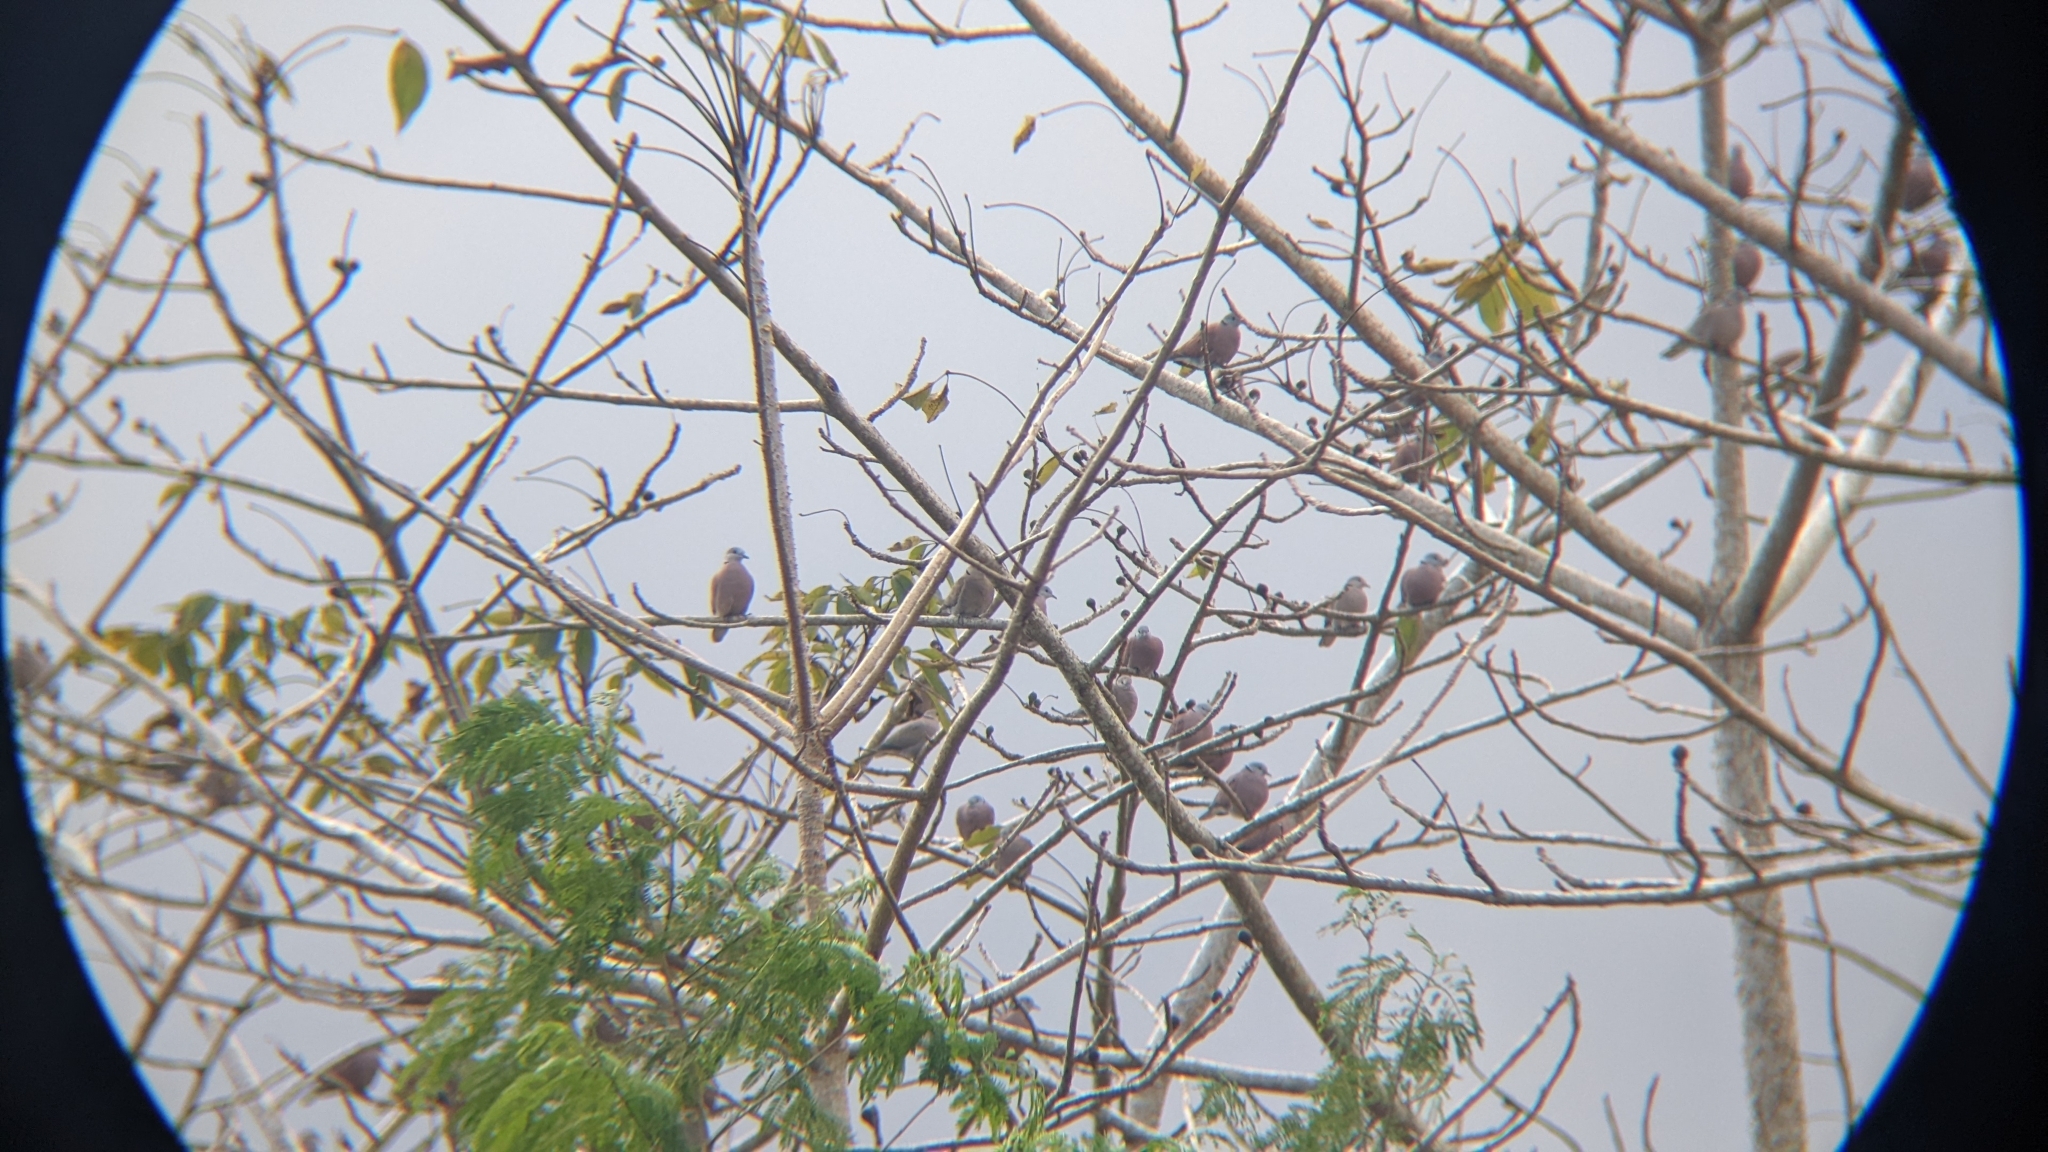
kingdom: Animalia
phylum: Chordata
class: Aves
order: Columbiformes
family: Columbidae
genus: Streptopelia
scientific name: Streptopelia tranquebarica
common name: Red turtle dove
